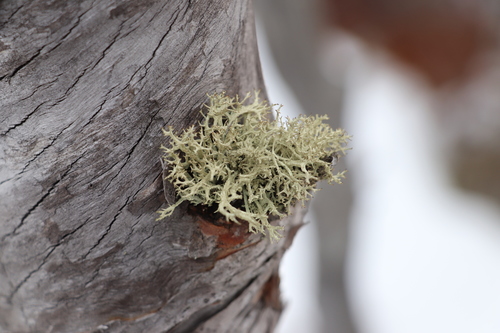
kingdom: Fungi
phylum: Ascomycota
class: Lecanoromycetes
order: Lecanorales
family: Parmeliaceae
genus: Evernia
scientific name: Evernia mesomorpha
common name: Boreal oak moss lichen
